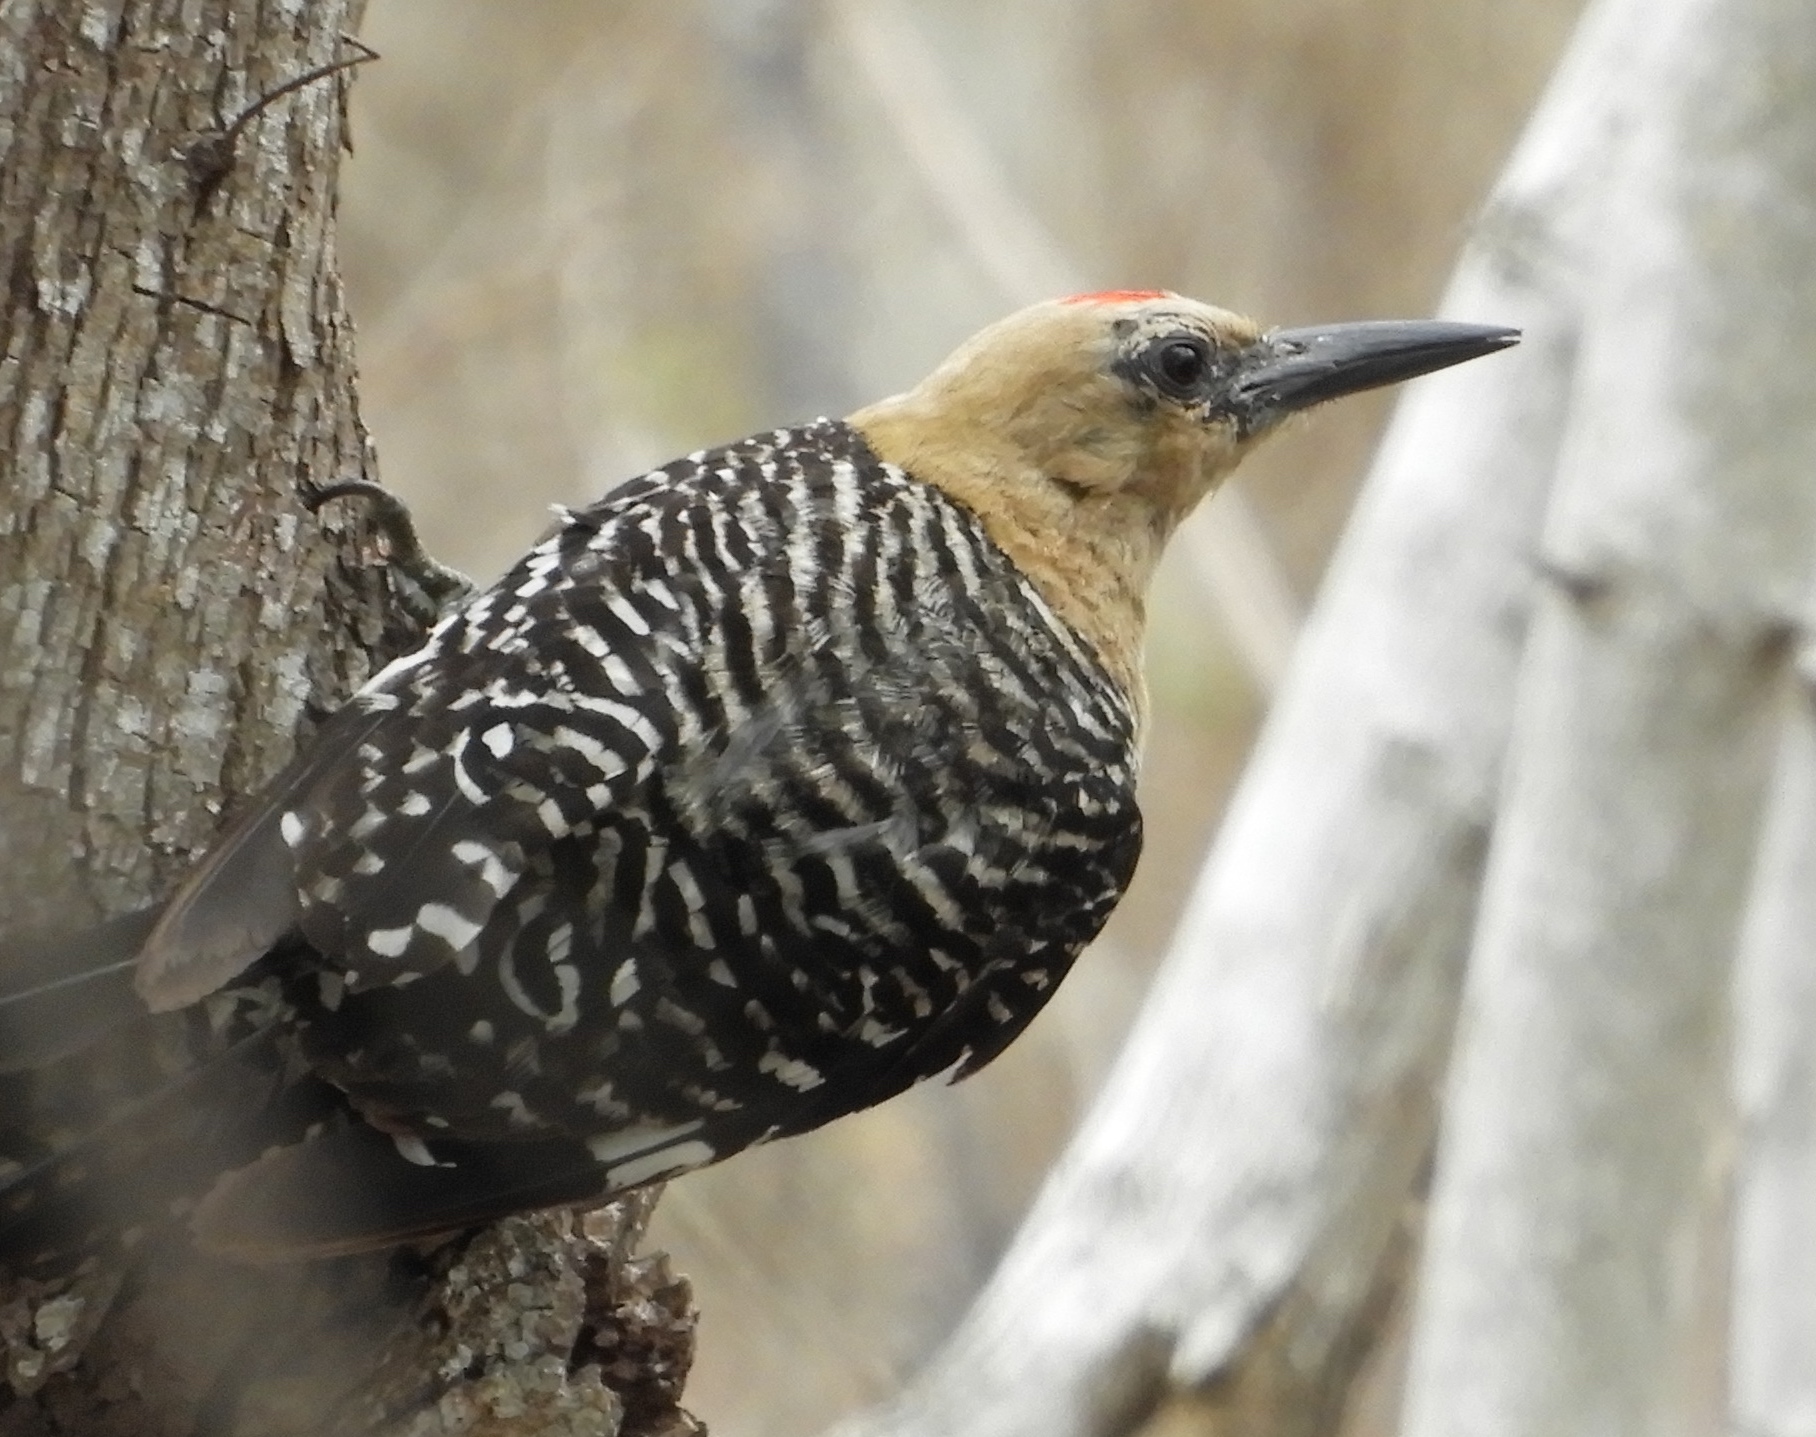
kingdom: Animalia
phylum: Chordata
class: Aves
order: Piciformes
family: Picidae
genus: Melanerpes
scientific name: Melanerpes uropygialis
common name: Gila woodpecker
